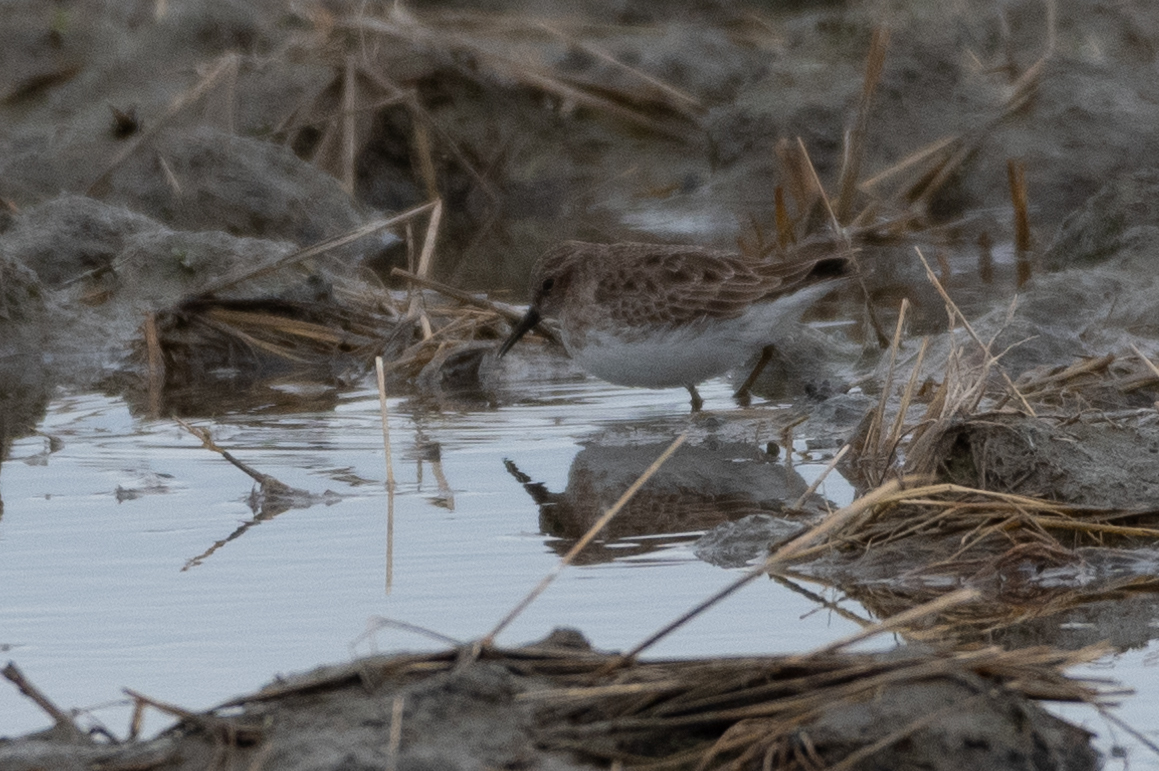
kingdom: Animalia
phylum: Chordata
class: Aves
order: Charadriiformes
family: Scolopacidae
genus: Calidris
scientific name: Calidris minutilla
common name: Least sandpiper
